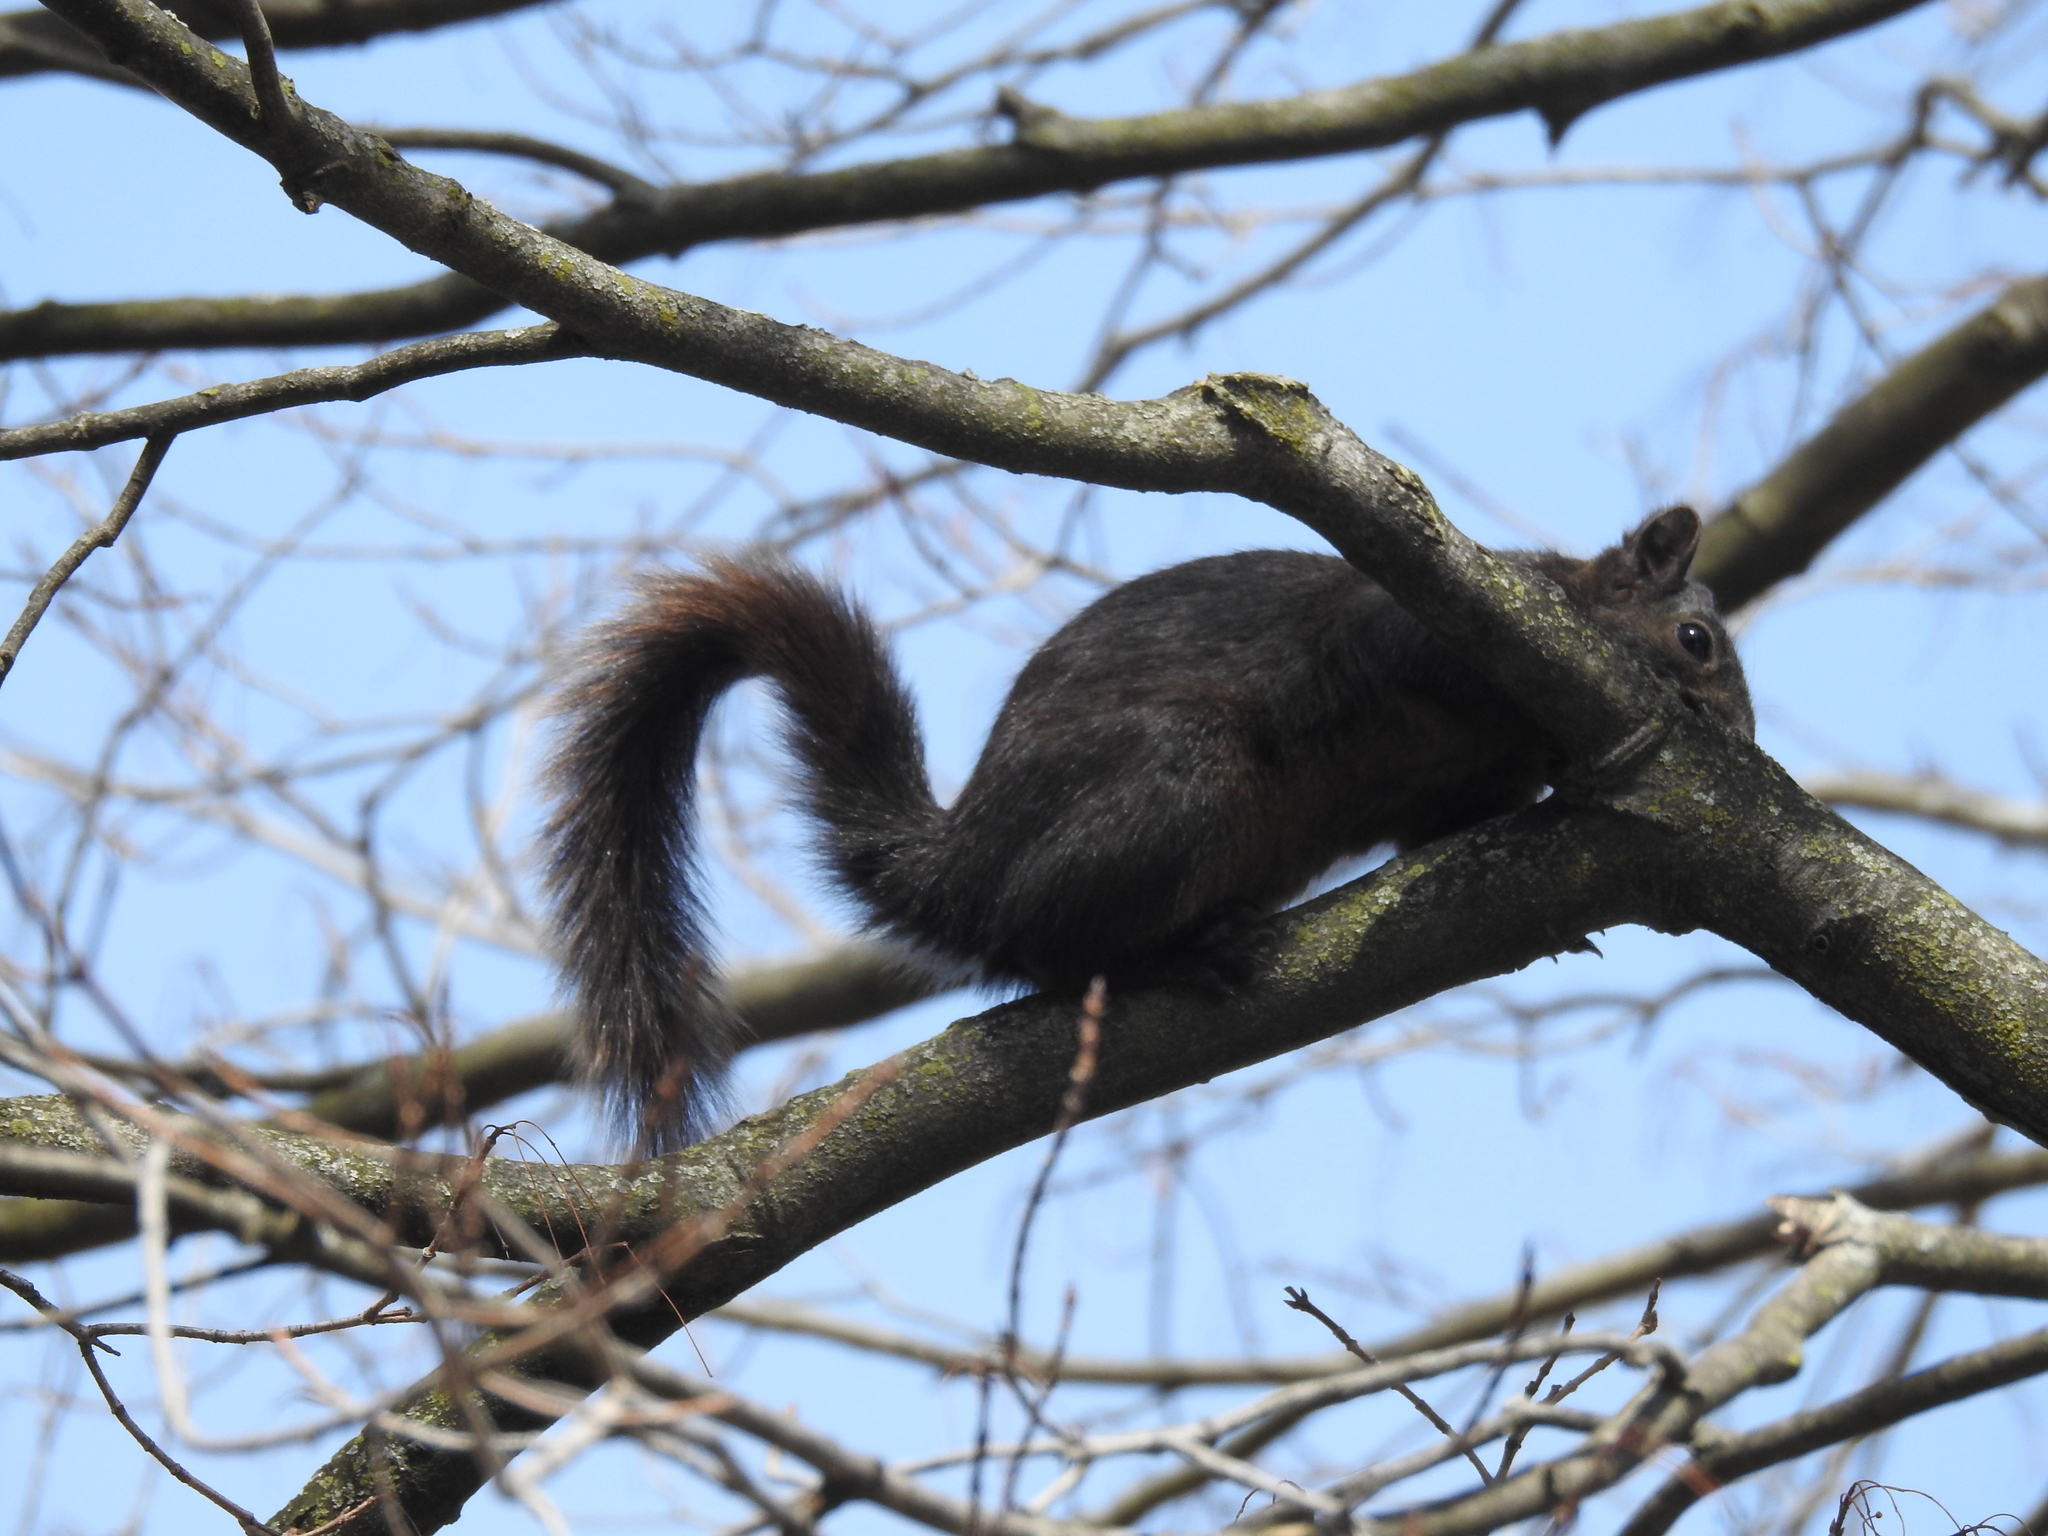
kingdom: Animalia
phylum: Chordata
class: Mammalia
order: Rodentia
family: Sciuridae
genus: Sciurus
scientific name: Sciurus carolinensis
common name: Eastern gray squirrel
